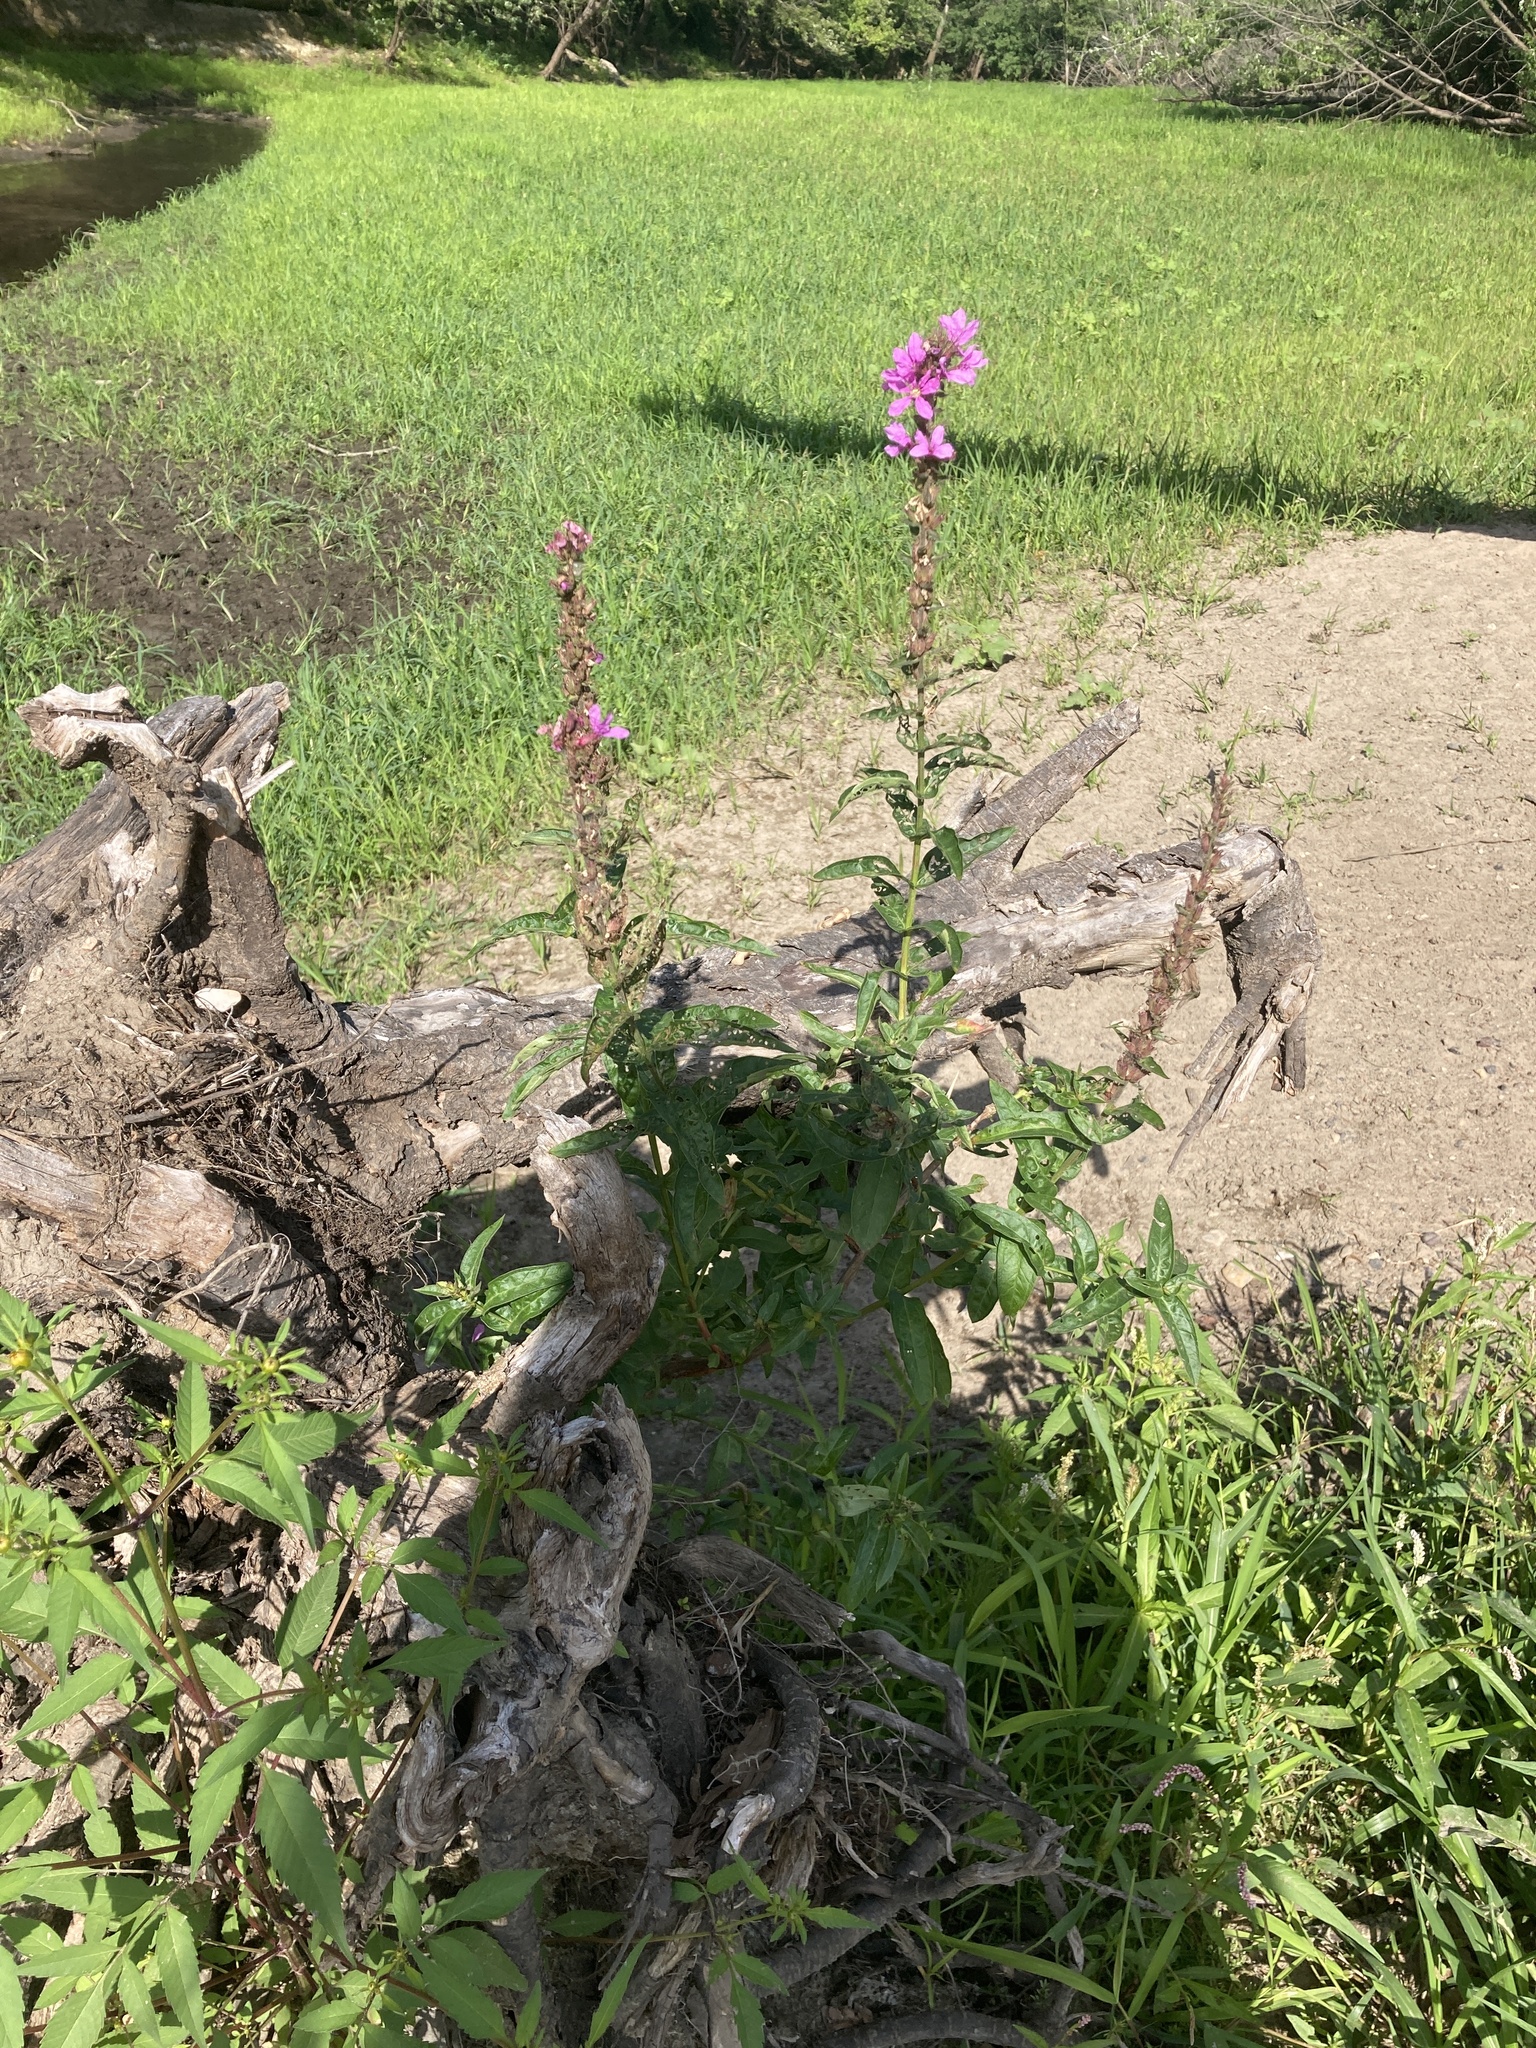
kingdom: Plantae
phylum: Tracheophyta
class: Magnoliopsida
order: Myrtales
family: Lythraceae
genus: Lythrum
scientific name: Lythrum salicaria
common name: Purple loosestrife
